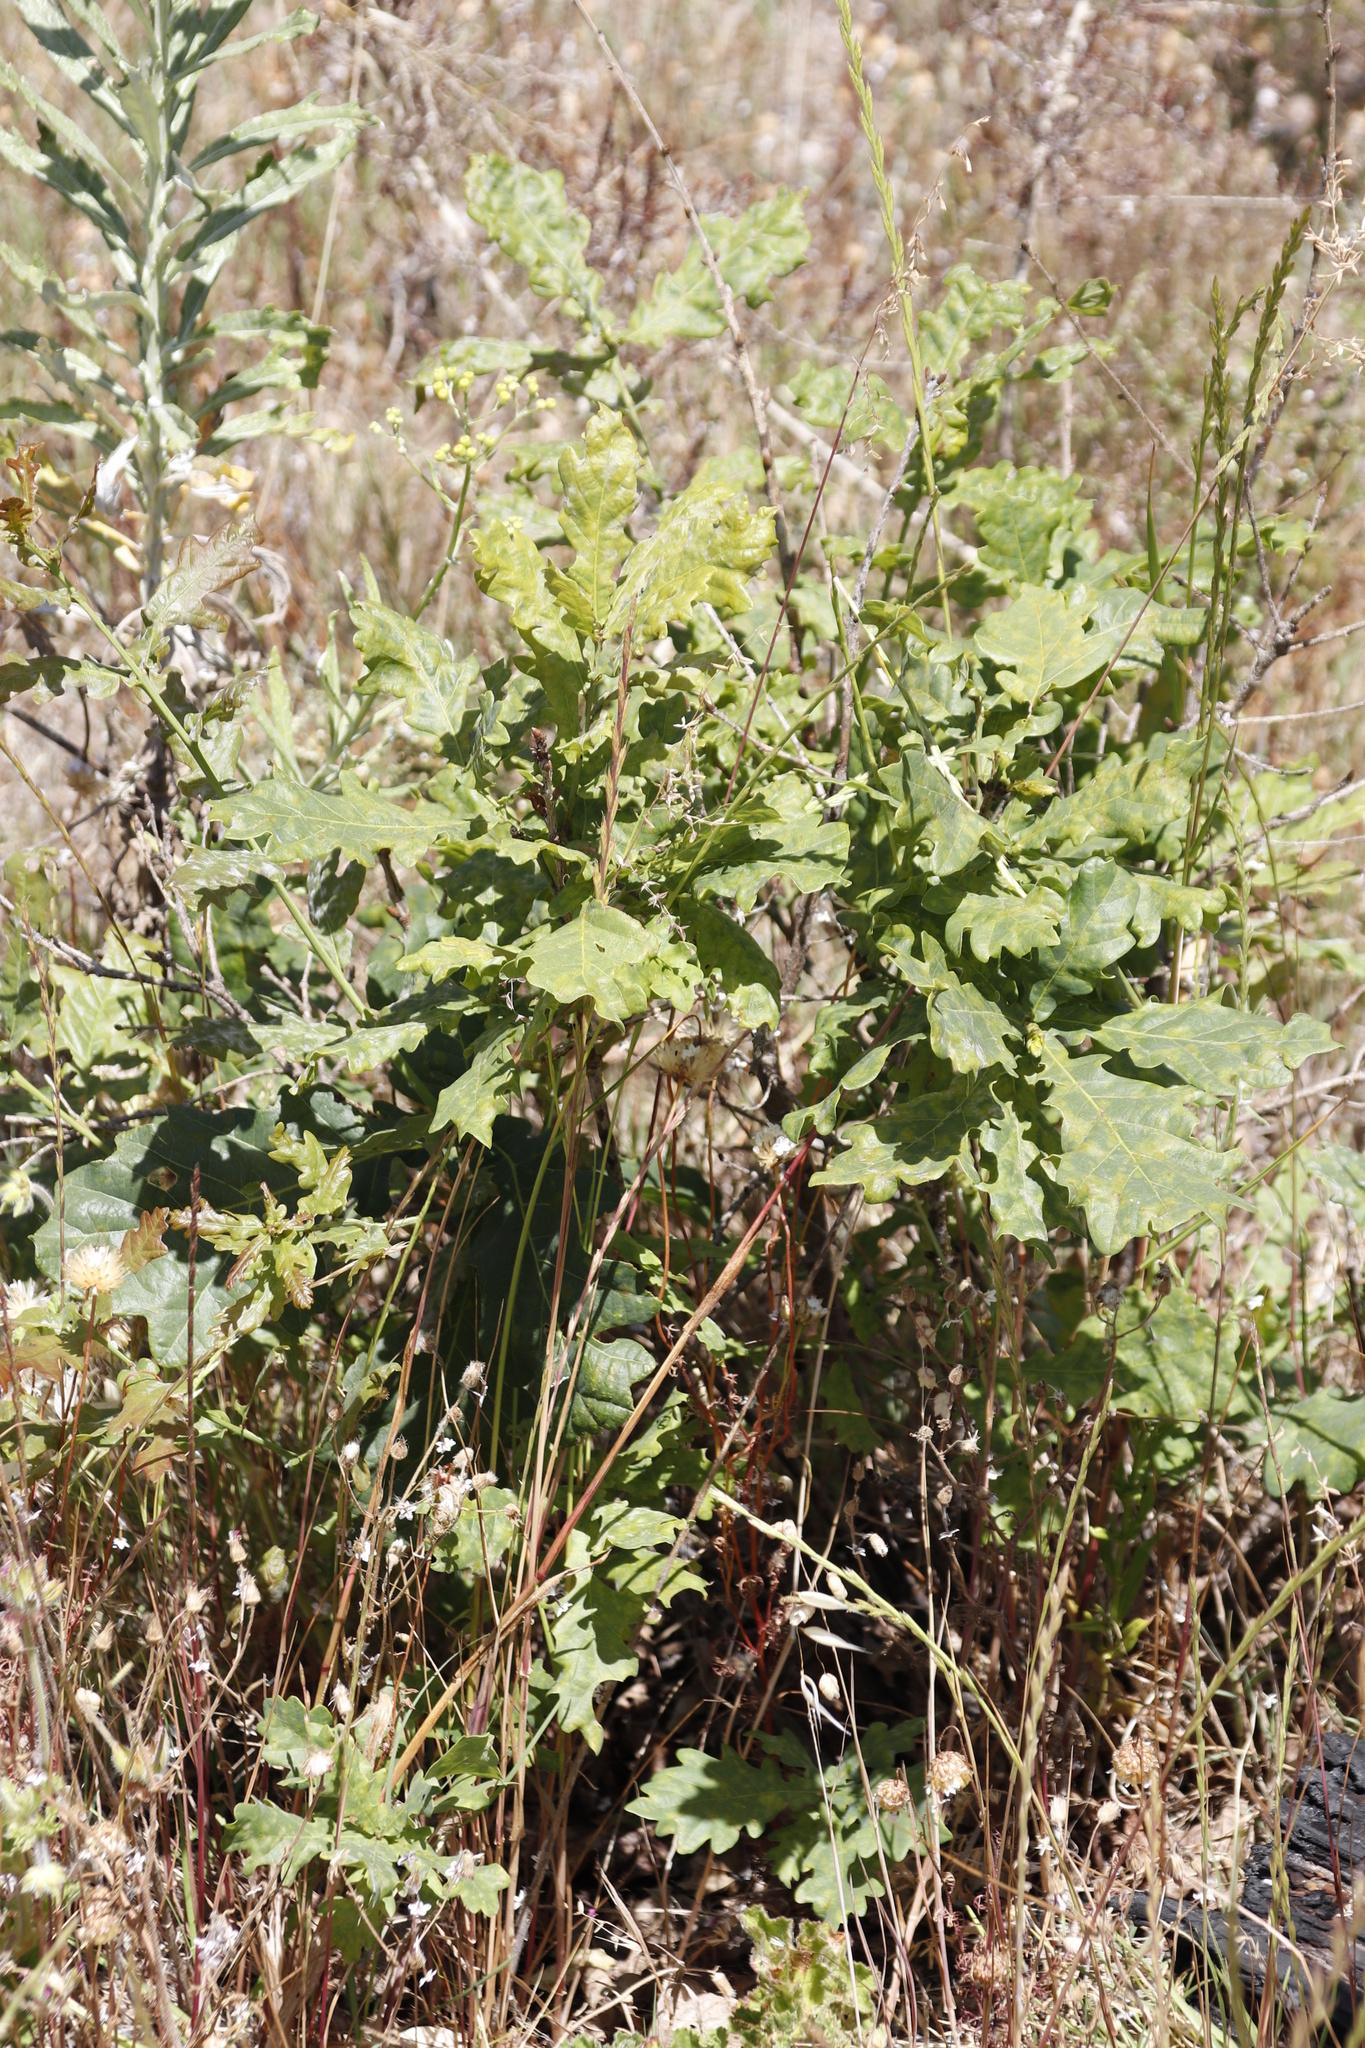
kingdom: Plantae
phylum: Tracheophyta
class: Magnoliopsida
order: Fagales
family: Fagaceae
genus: Quercus
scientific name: Quercus robur
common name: Pedunculate oak
